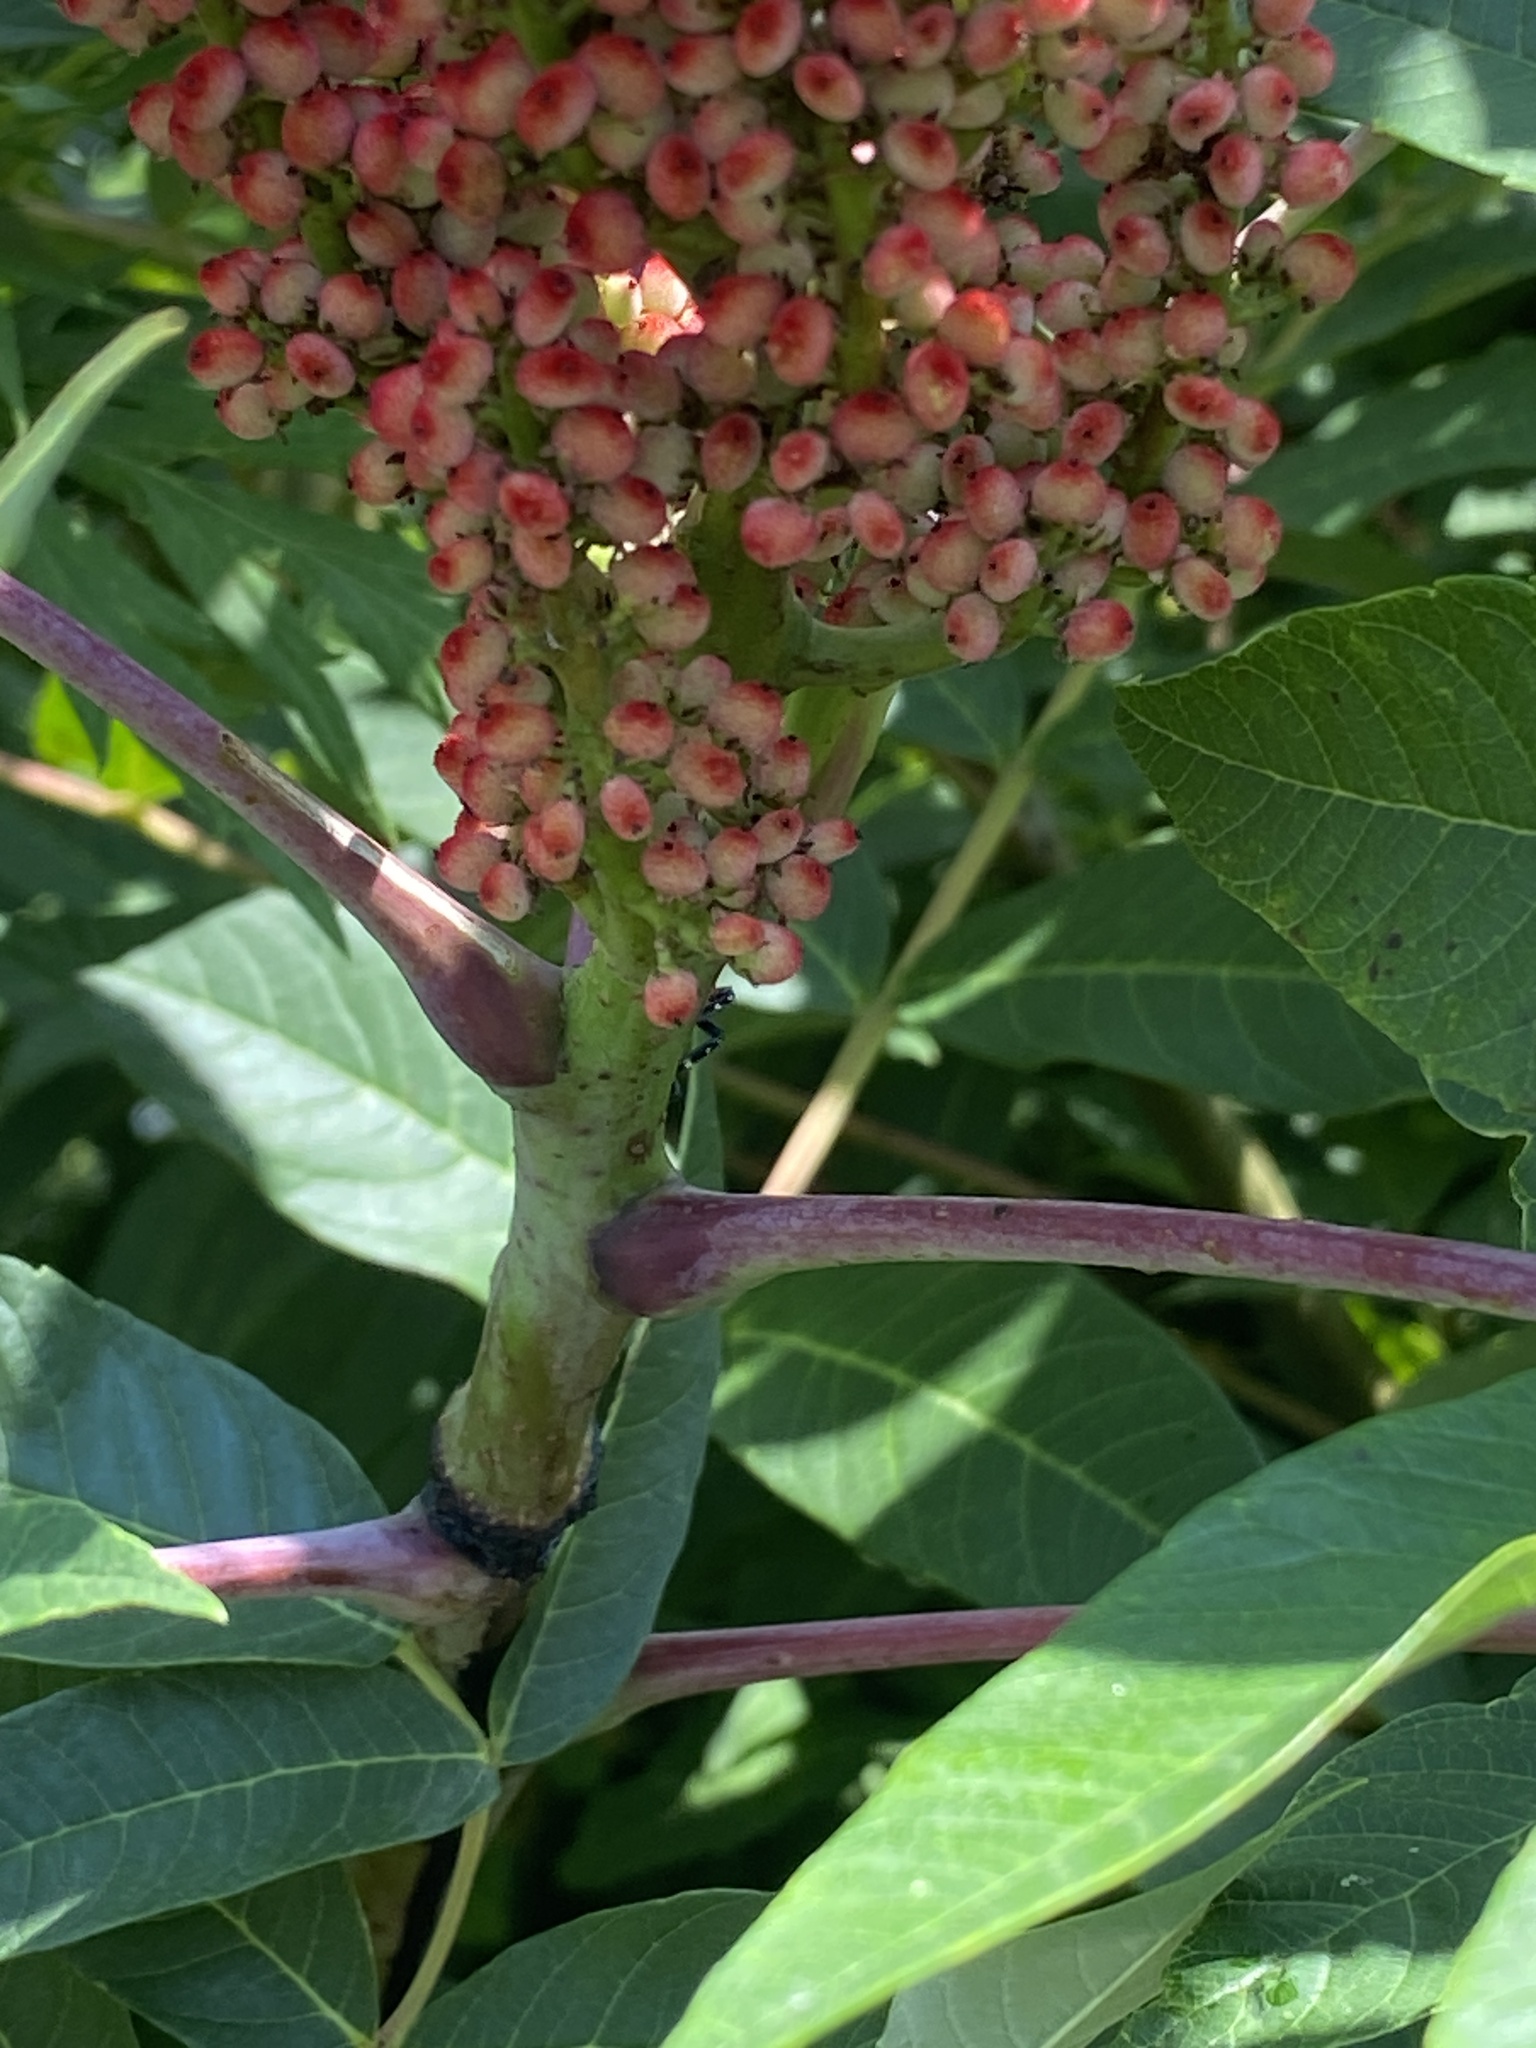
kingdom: Plantae
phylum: Tracheophyta
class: Magnoliopsida
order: Sapindales
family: Anacardiaceae
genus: Rhus
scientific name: Rhus glabra
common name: Scarlet sumac
